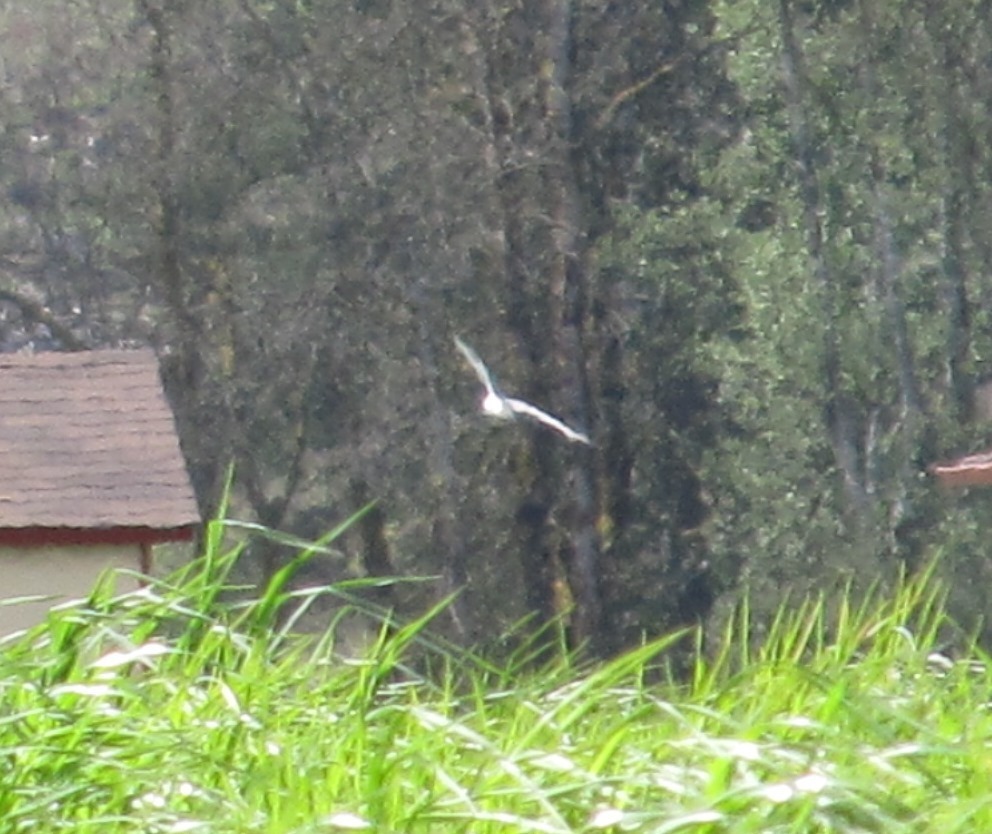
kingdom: Animalia
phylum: Chordata
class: Aves
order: Accipitriformes
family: Accipitridae
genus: Elanus
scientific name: Elanus leucurus
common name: White-tailed kite
